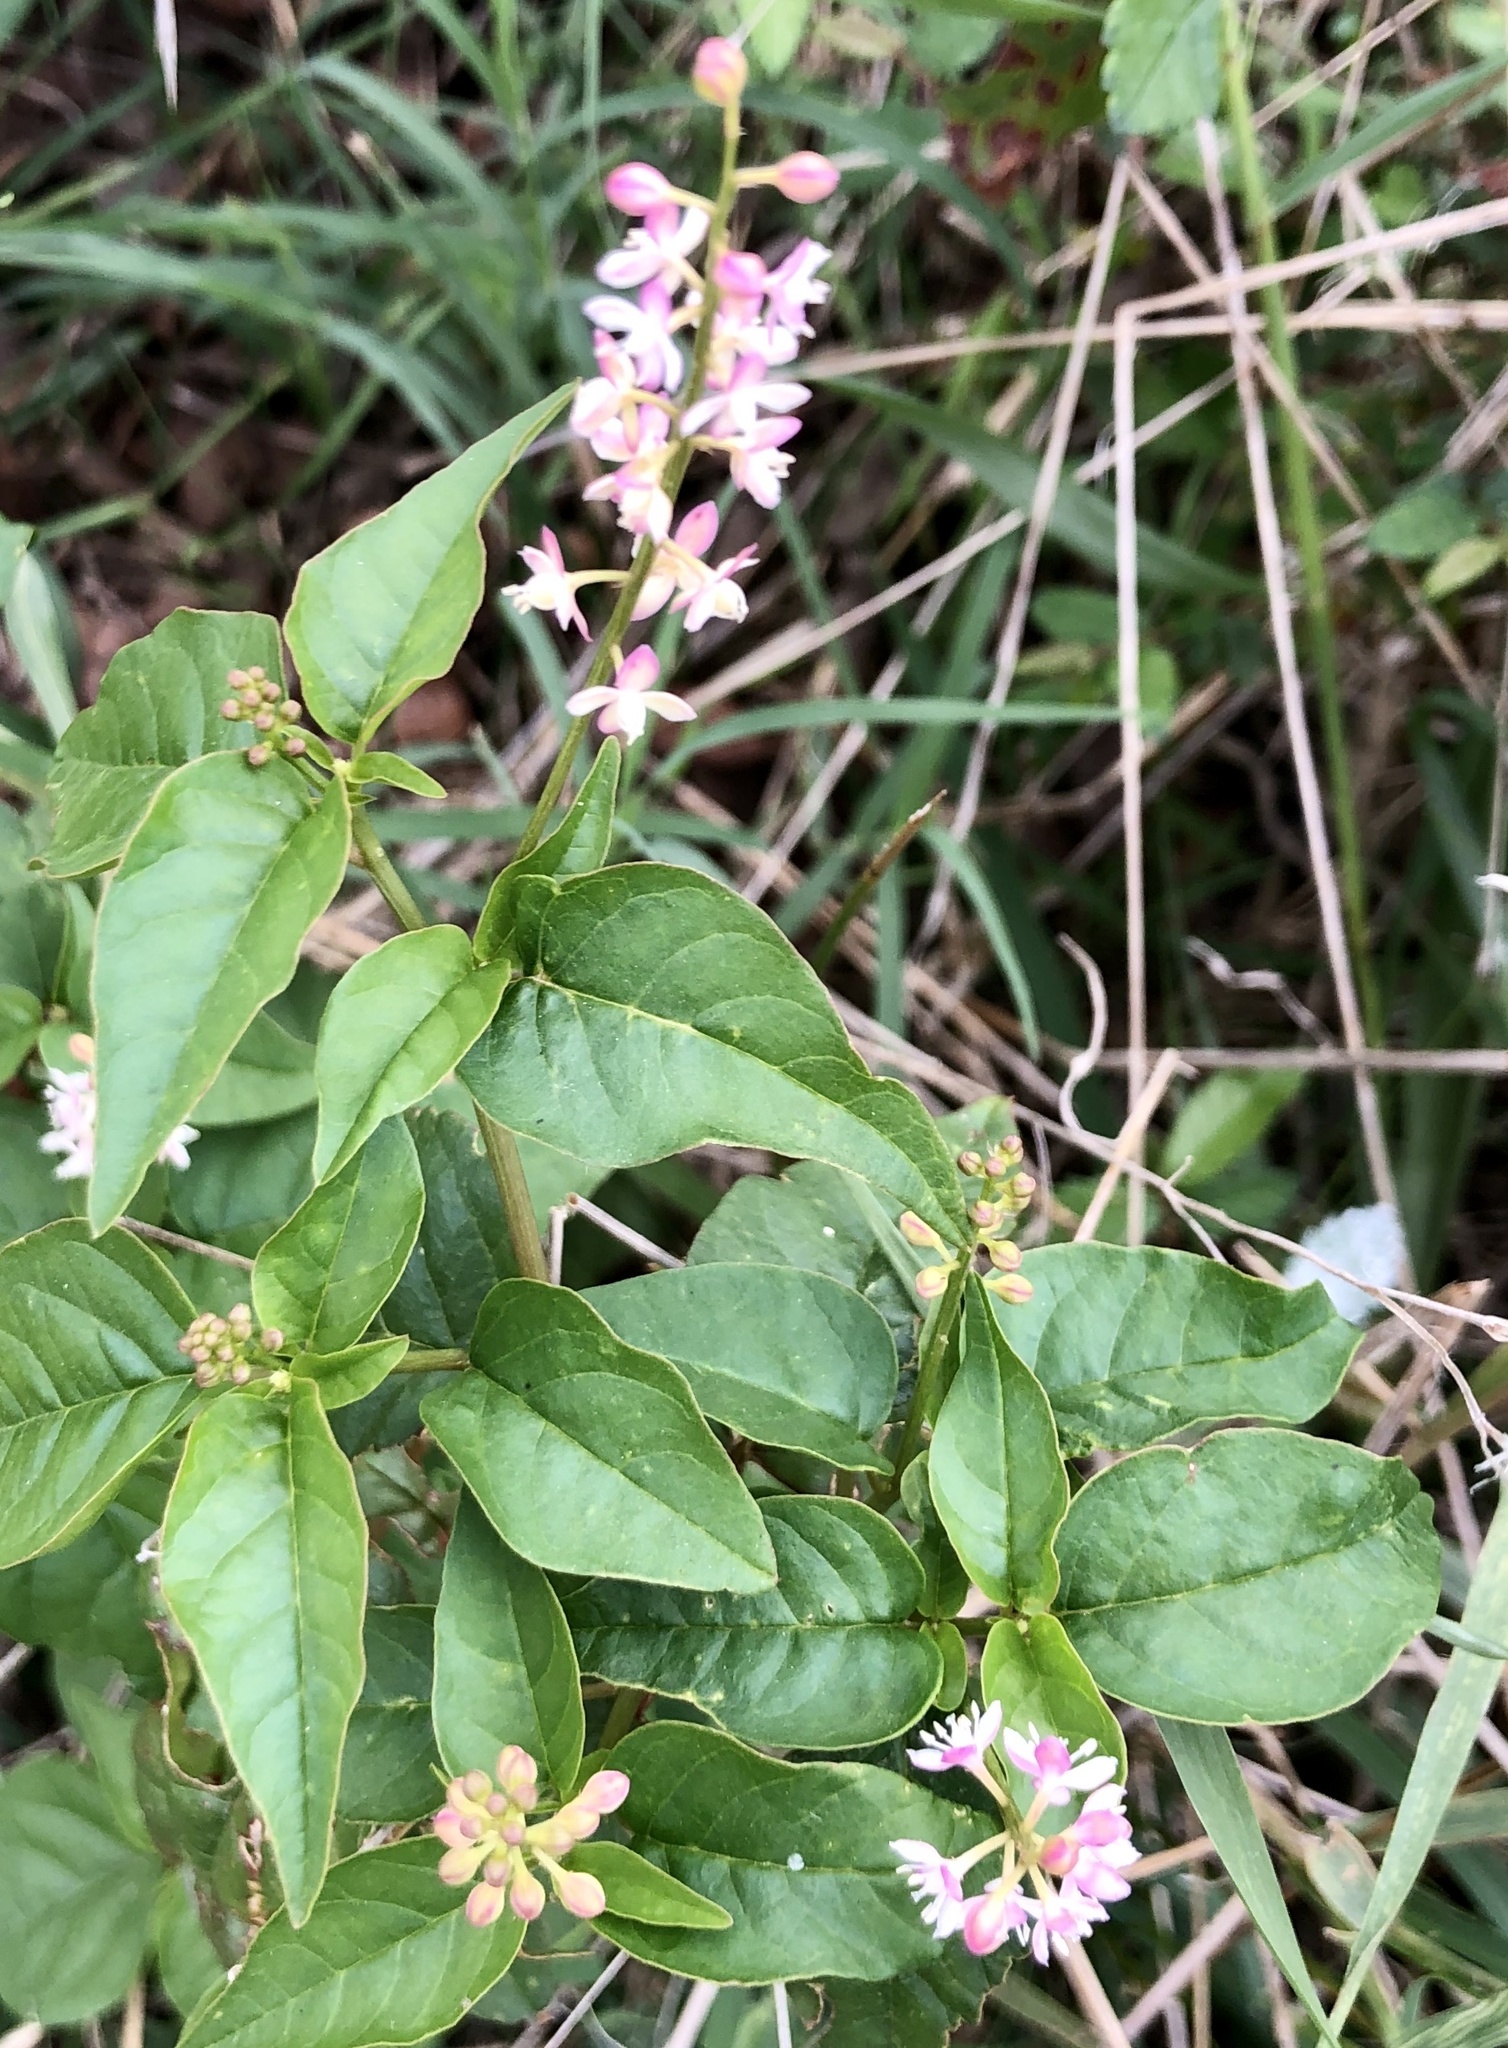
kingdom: Plantae
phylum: Tracheophyta
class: Magnoliopsida
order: Caryophyllales
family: Phytolaccaceae
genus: Rivina
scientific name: Rivina humilis
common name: Rougeplant
